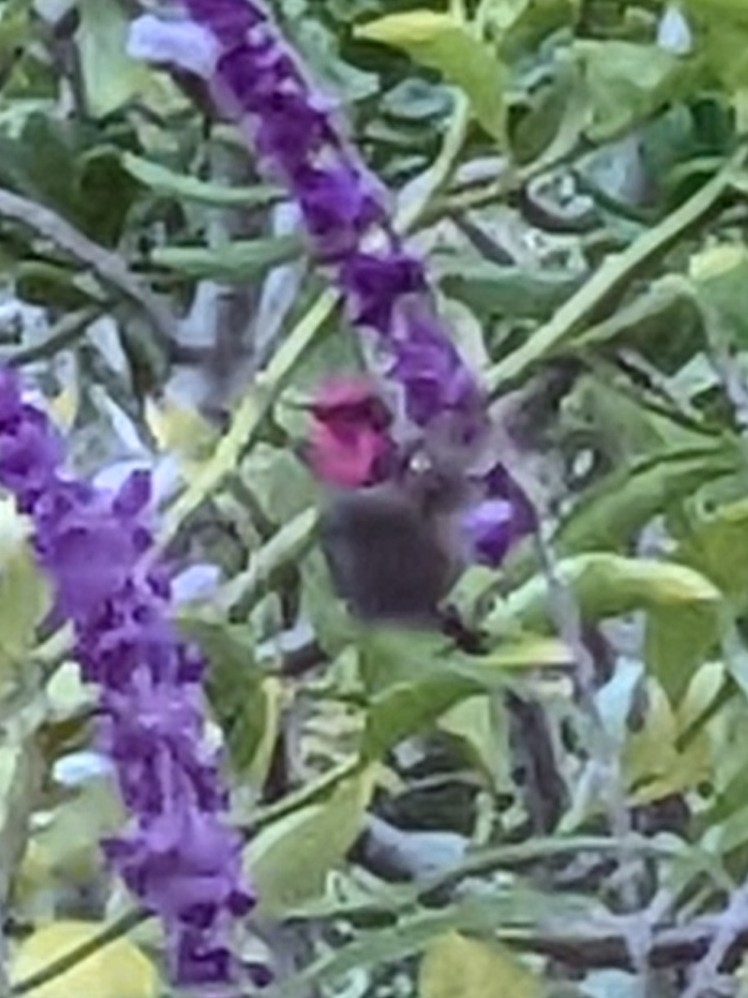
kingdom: Animalia
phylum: Chordata
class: Aves
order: Apodiformes
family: Trochilidae
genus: Calypte
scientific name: Calypte anna
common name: Anna's hummingbird
